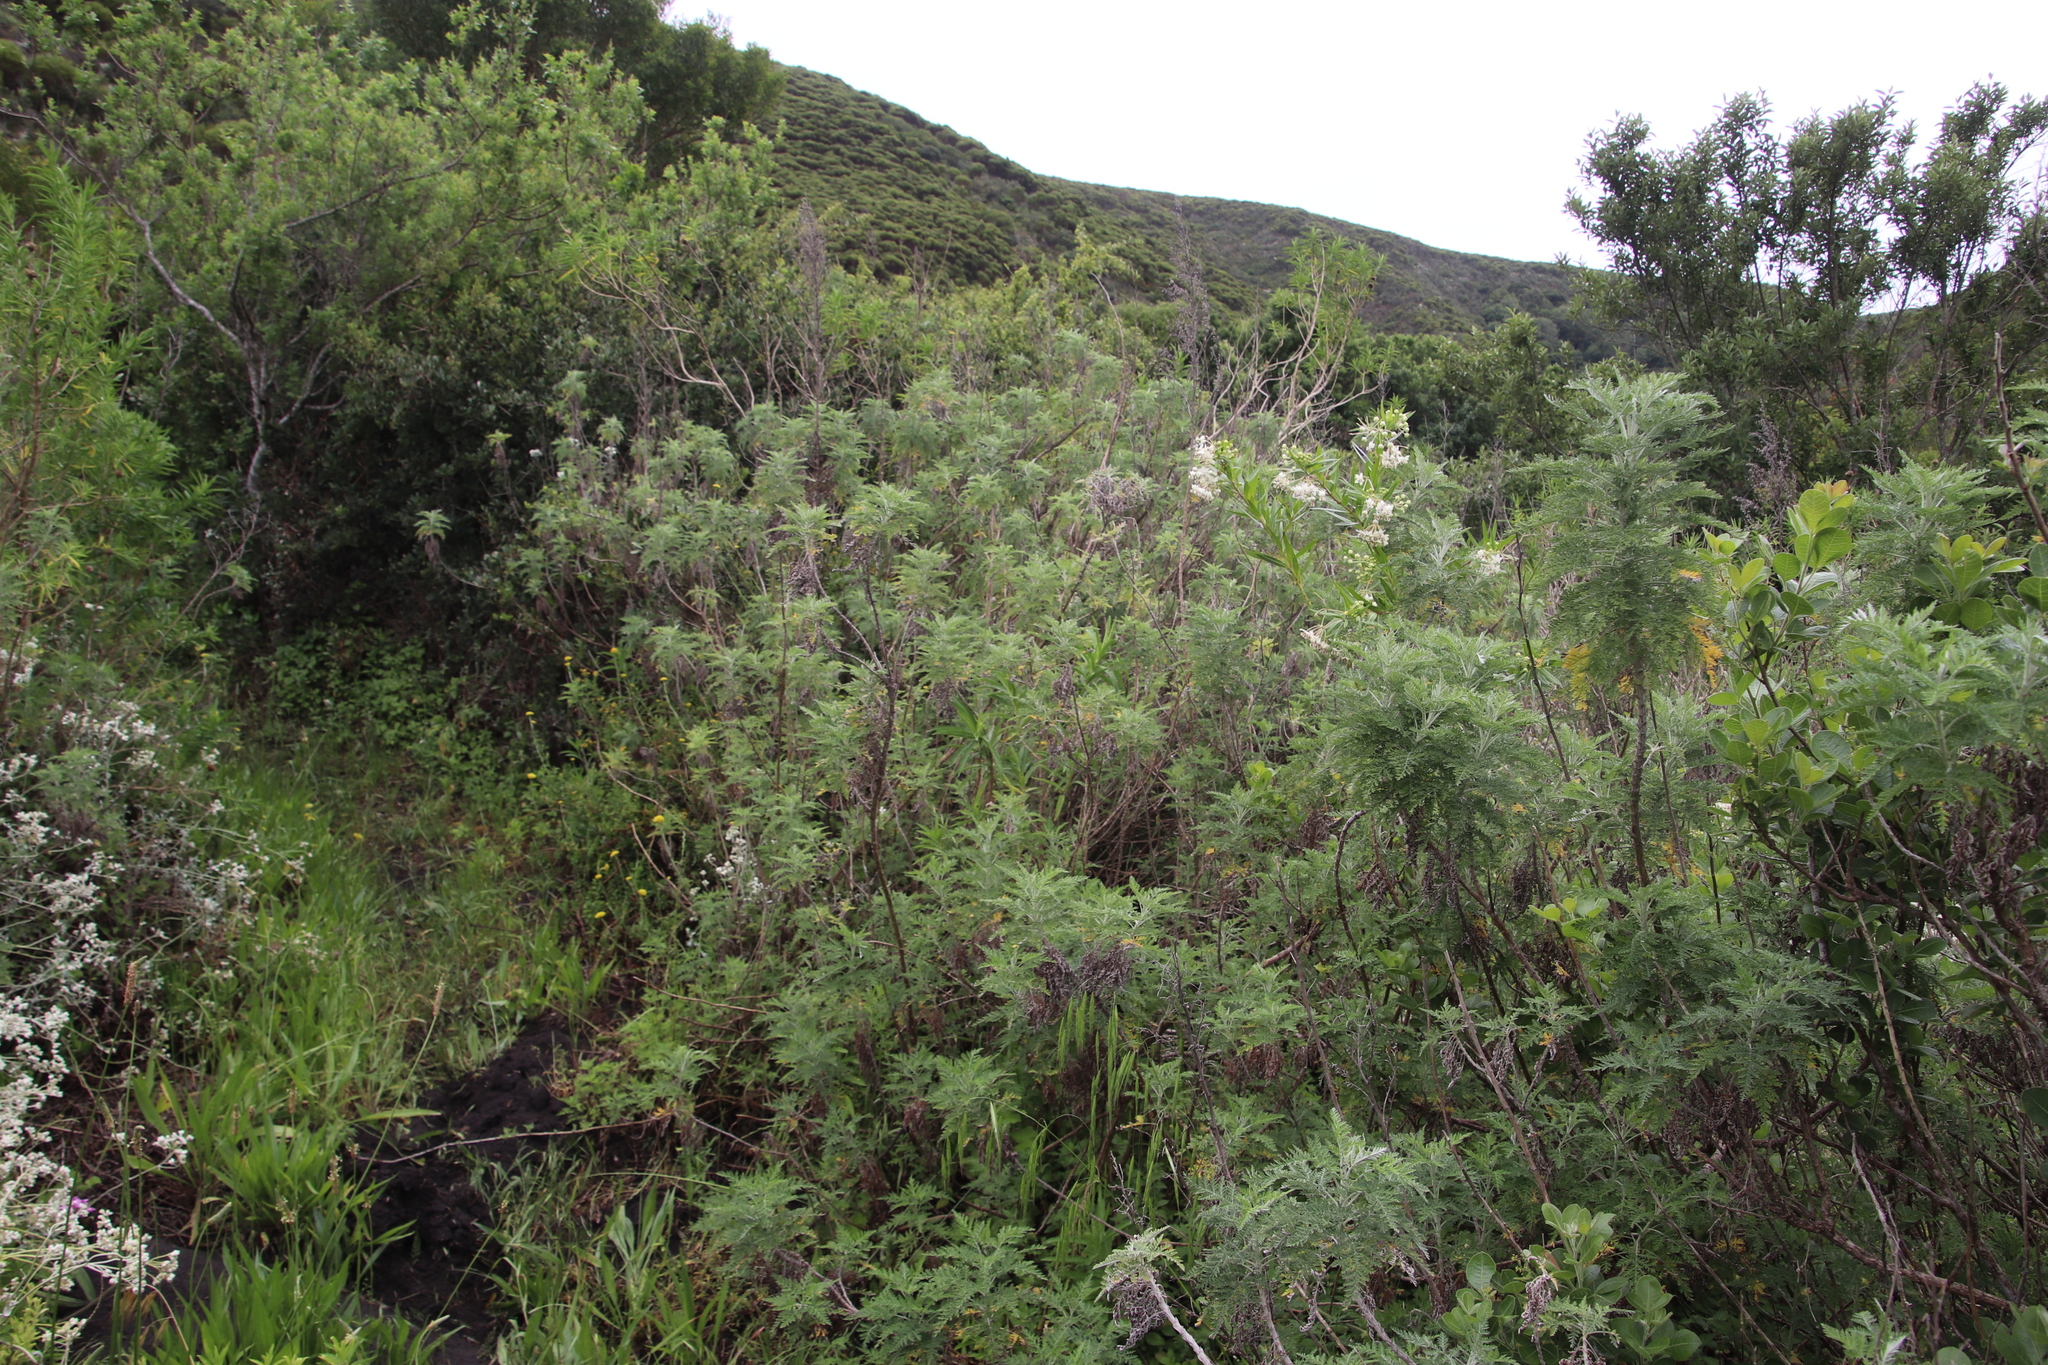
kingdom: Plantae
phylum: Tracheophyta
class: Magnoliopsida
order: Asterales
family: Asteraceae
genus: Artemisia
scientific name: Artemisia afra
